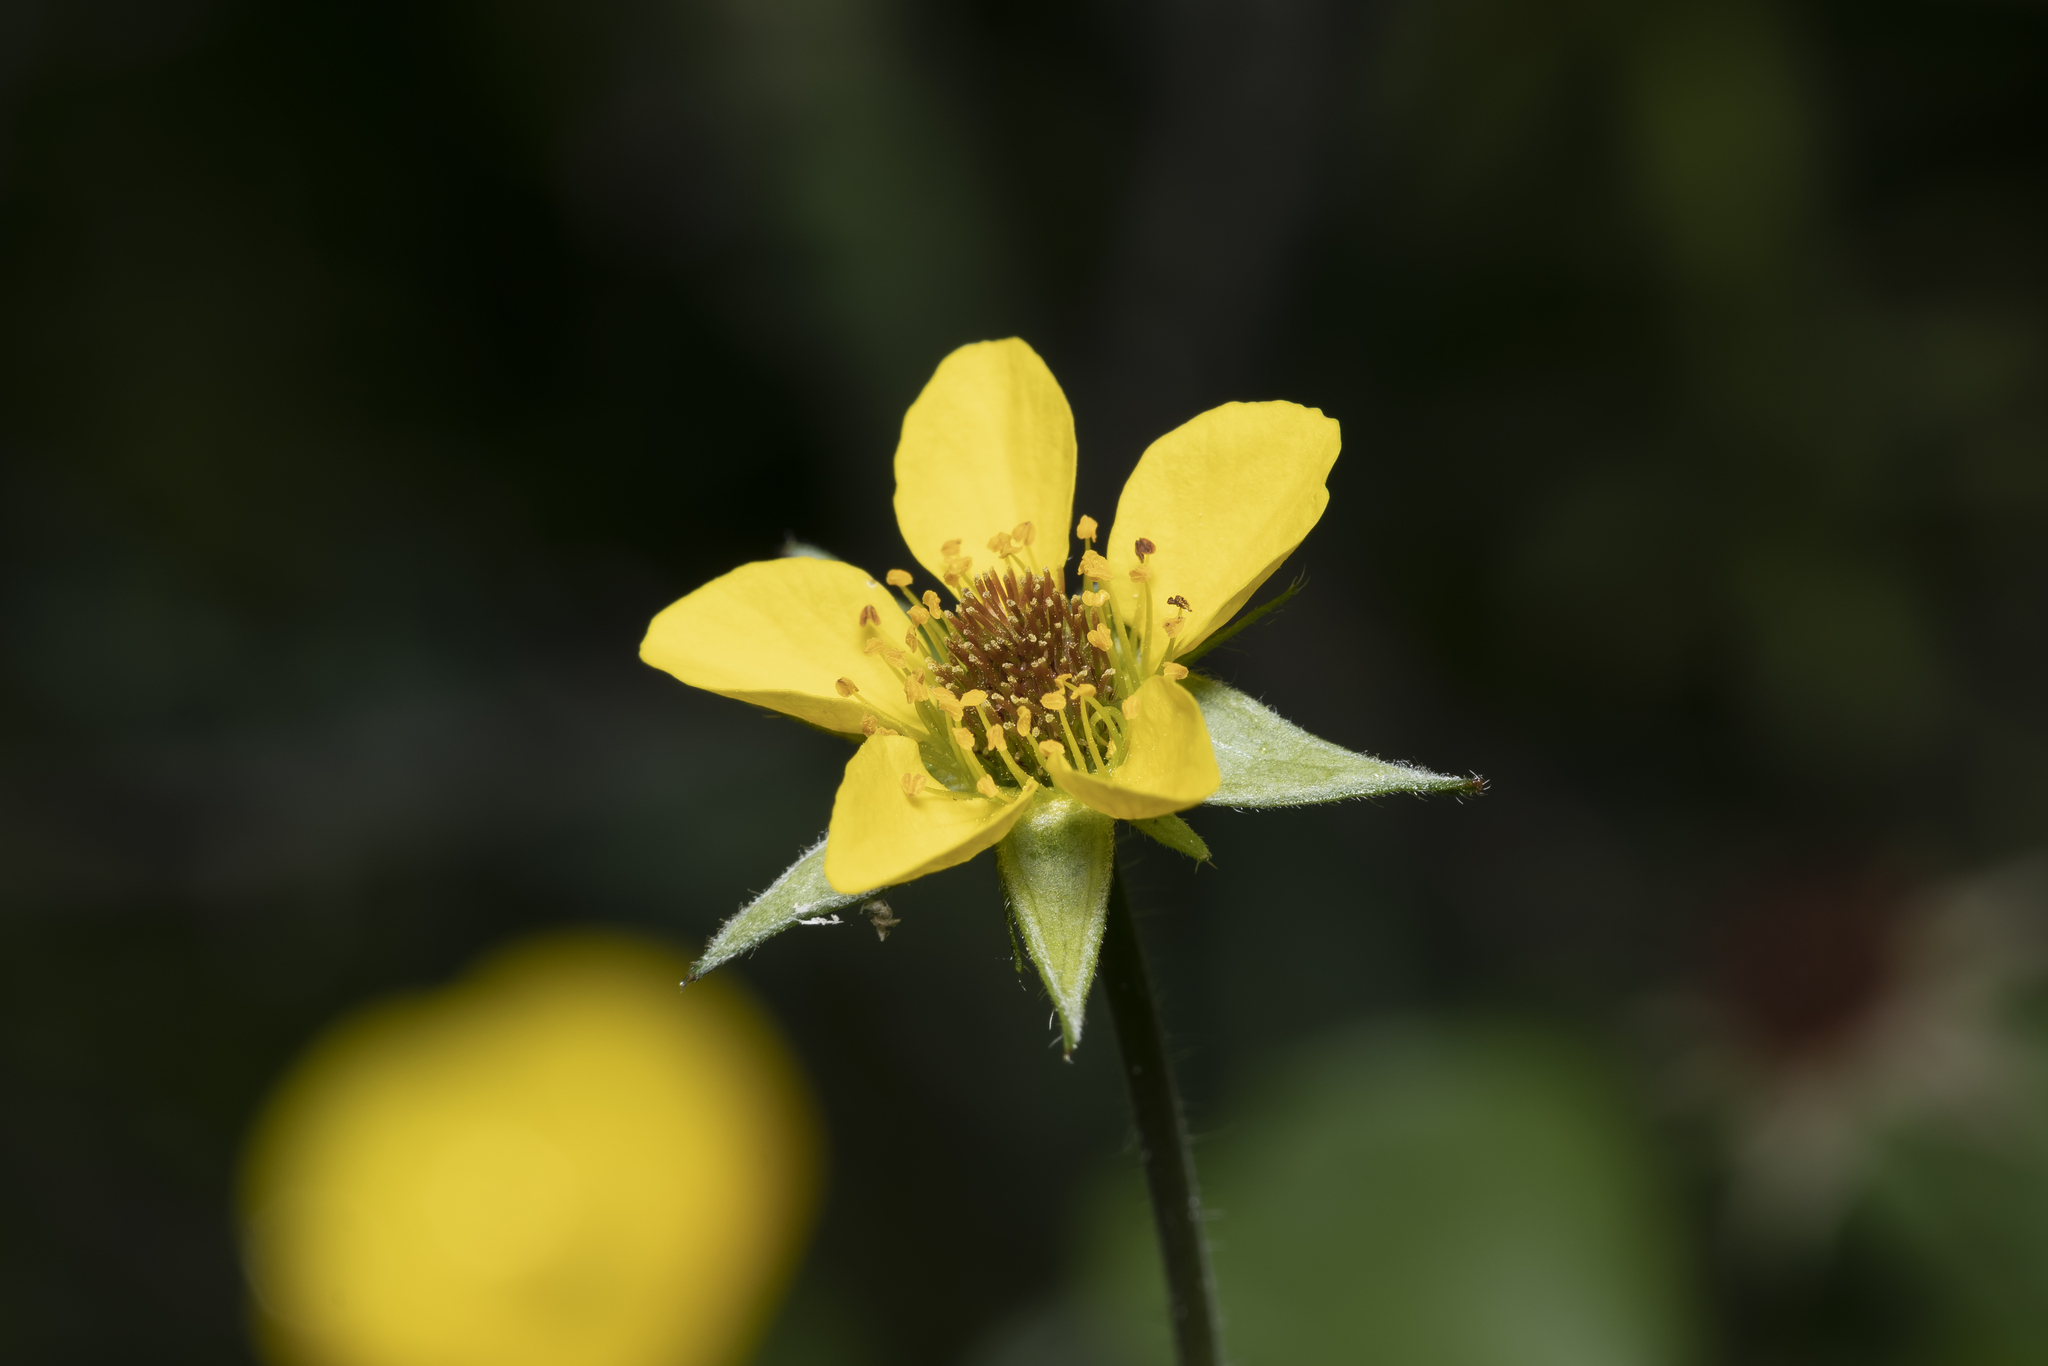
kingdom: Plantae
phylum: Tracheophyta
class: Magnoliopsida
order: Rosales
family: Rosaceae
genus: Geum
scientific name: Geum urbanum
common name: Wood avens
